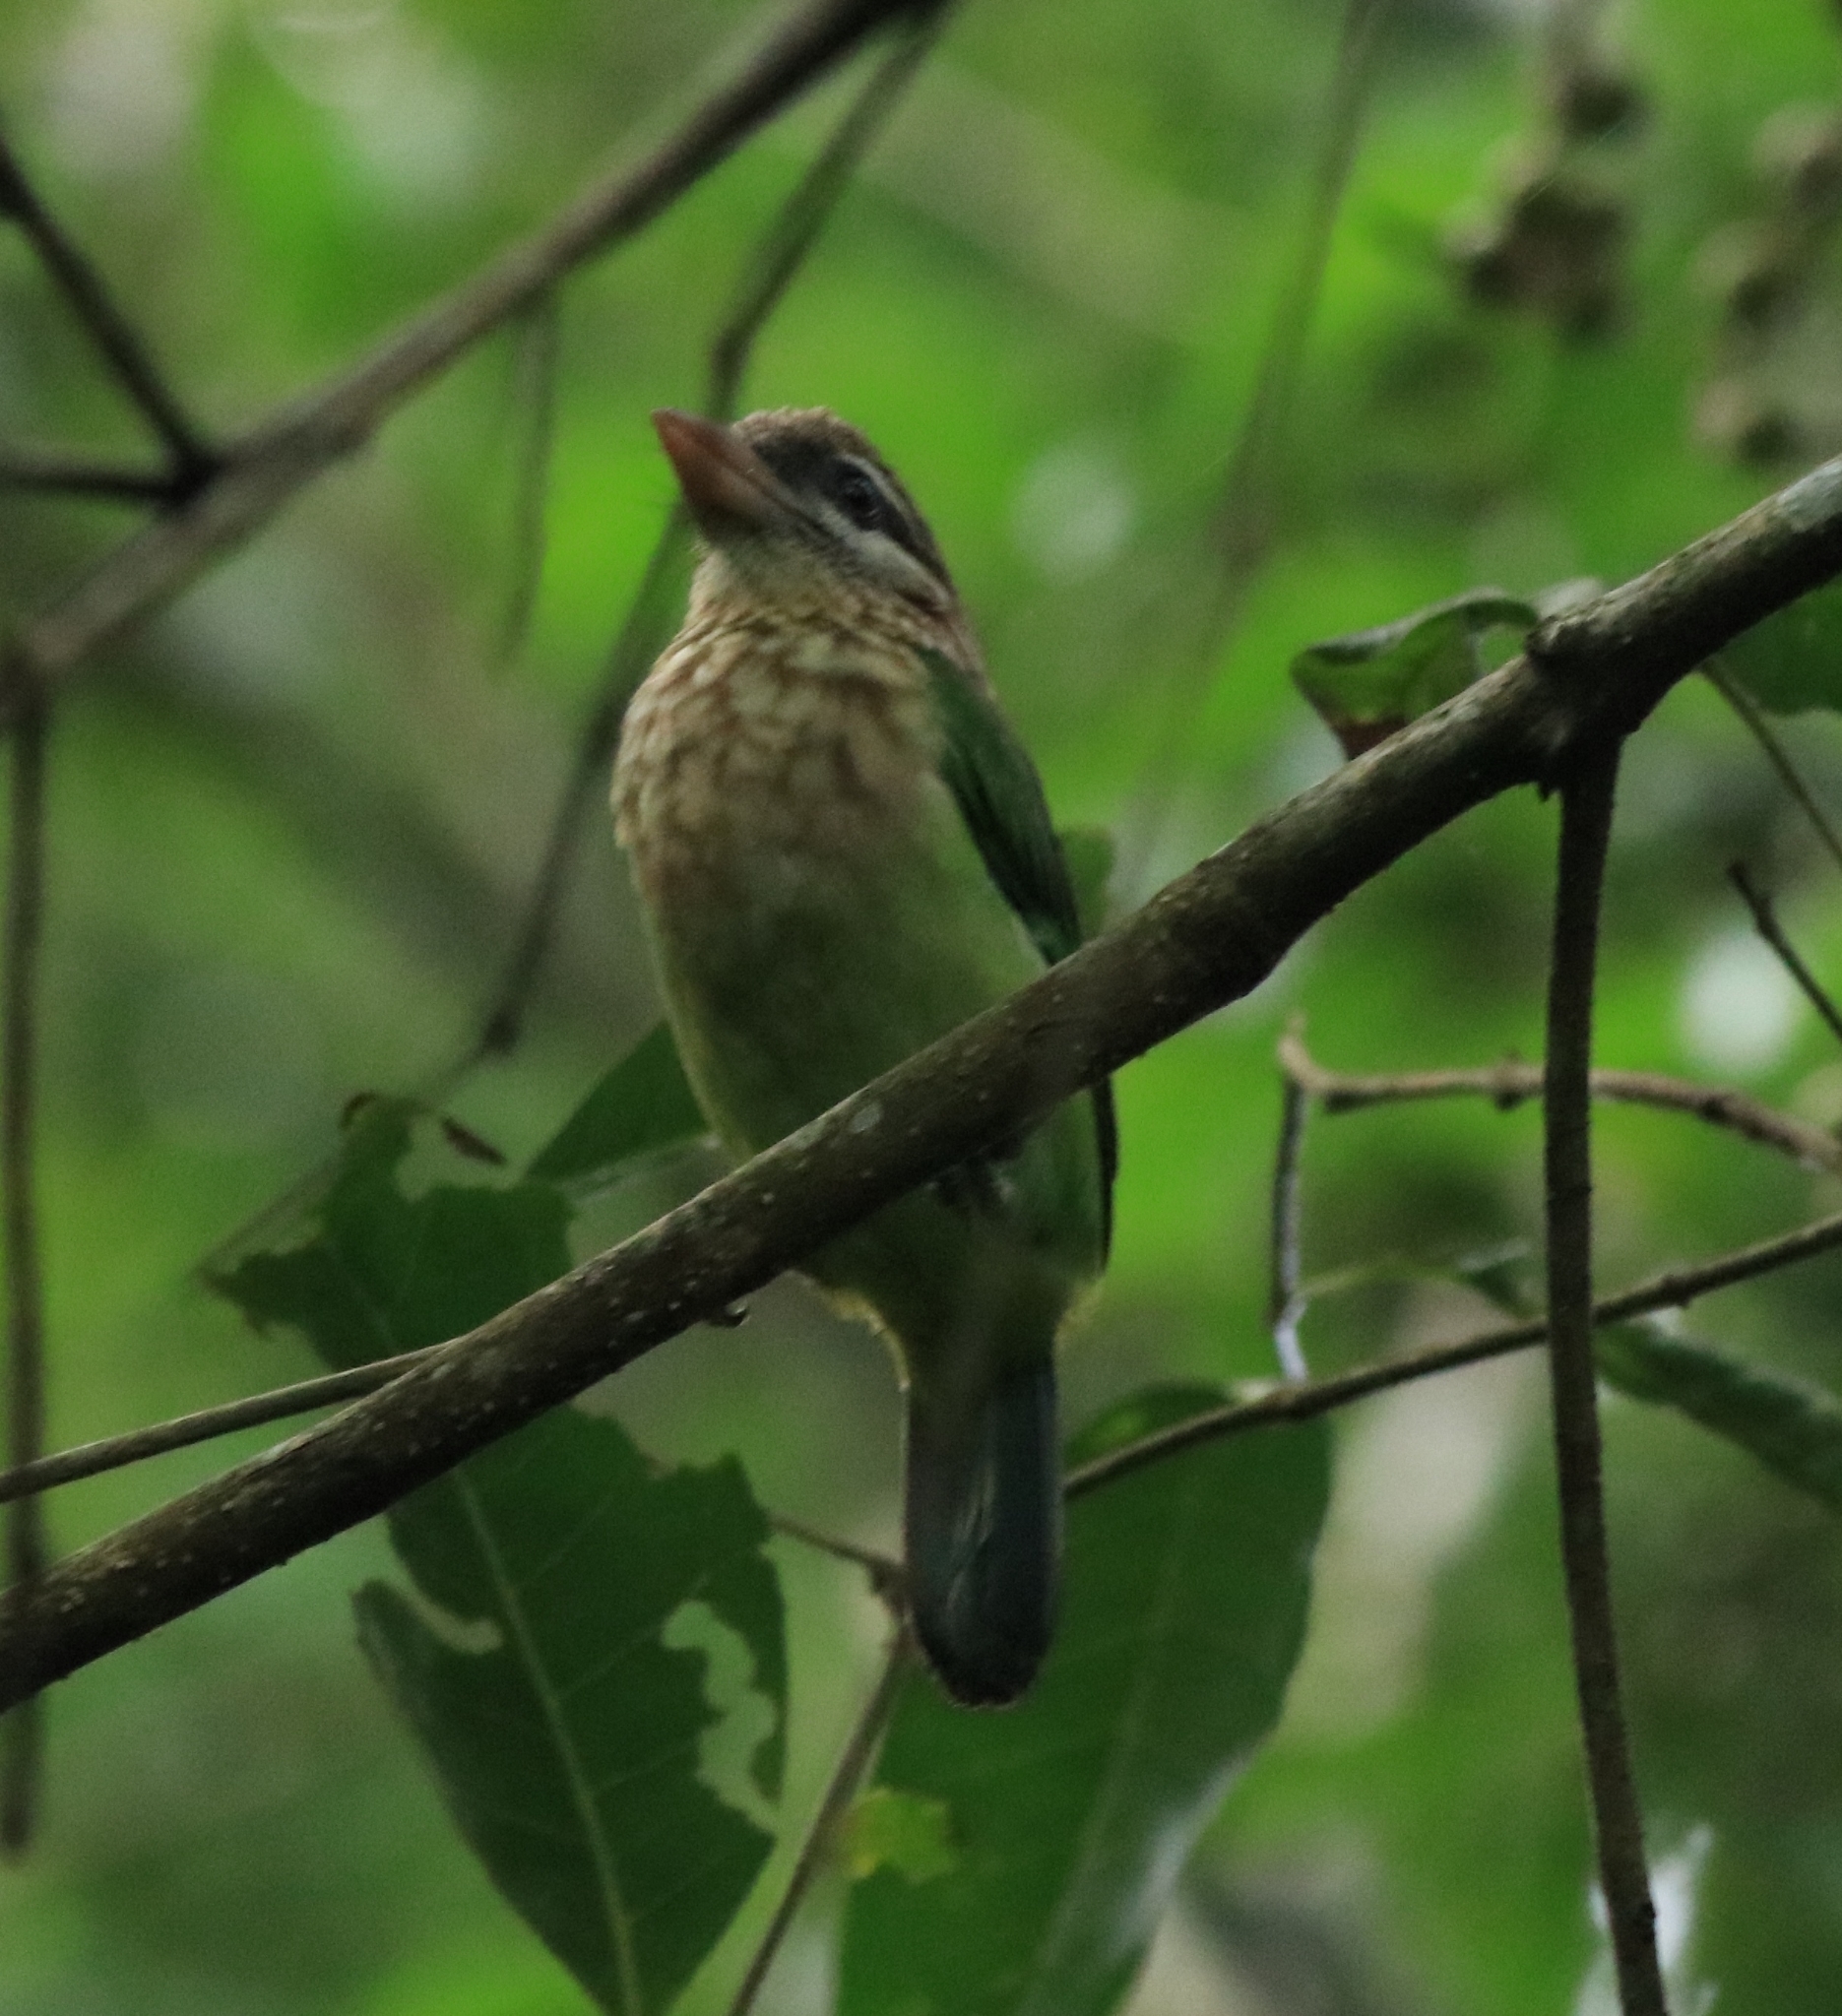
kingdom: Animalia
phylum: Chordata
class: Aves
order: Piciformes
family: Megalaimidae
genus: Psilopogon
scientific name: Psilopogon viridis
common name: White-cheeked barbet
